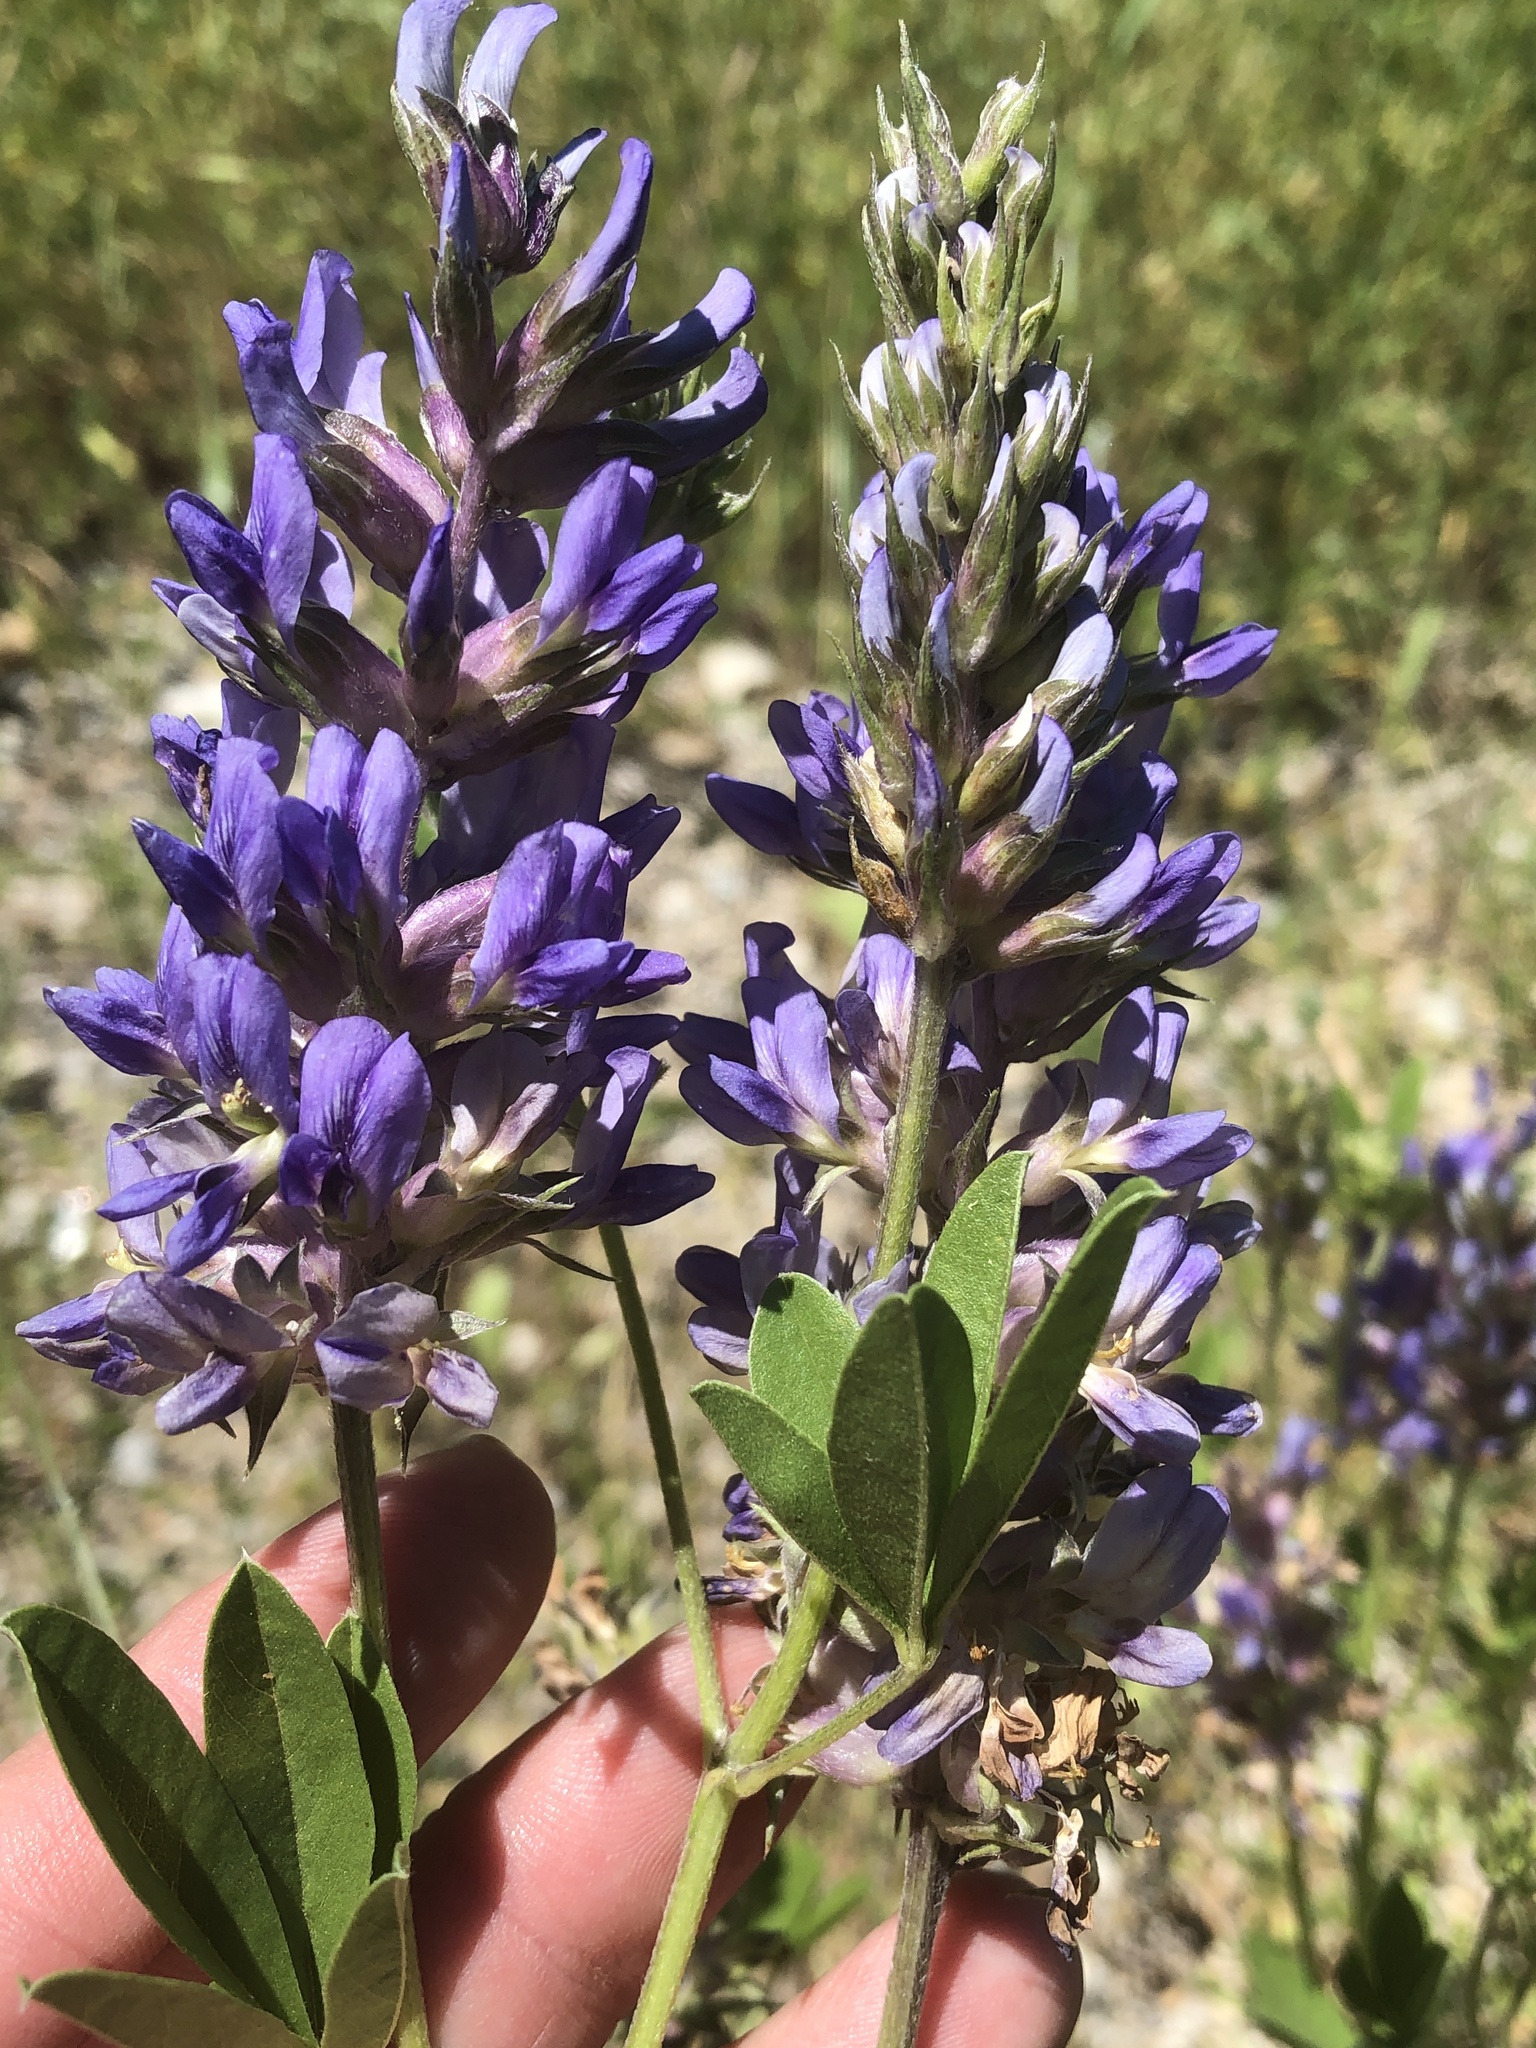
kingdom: Plantae
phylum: Tracheophyta
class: Magnoliopsida
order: Fabales
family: Fabaceae
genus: Pediomelum
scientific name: Pediomelum cuspidatum
